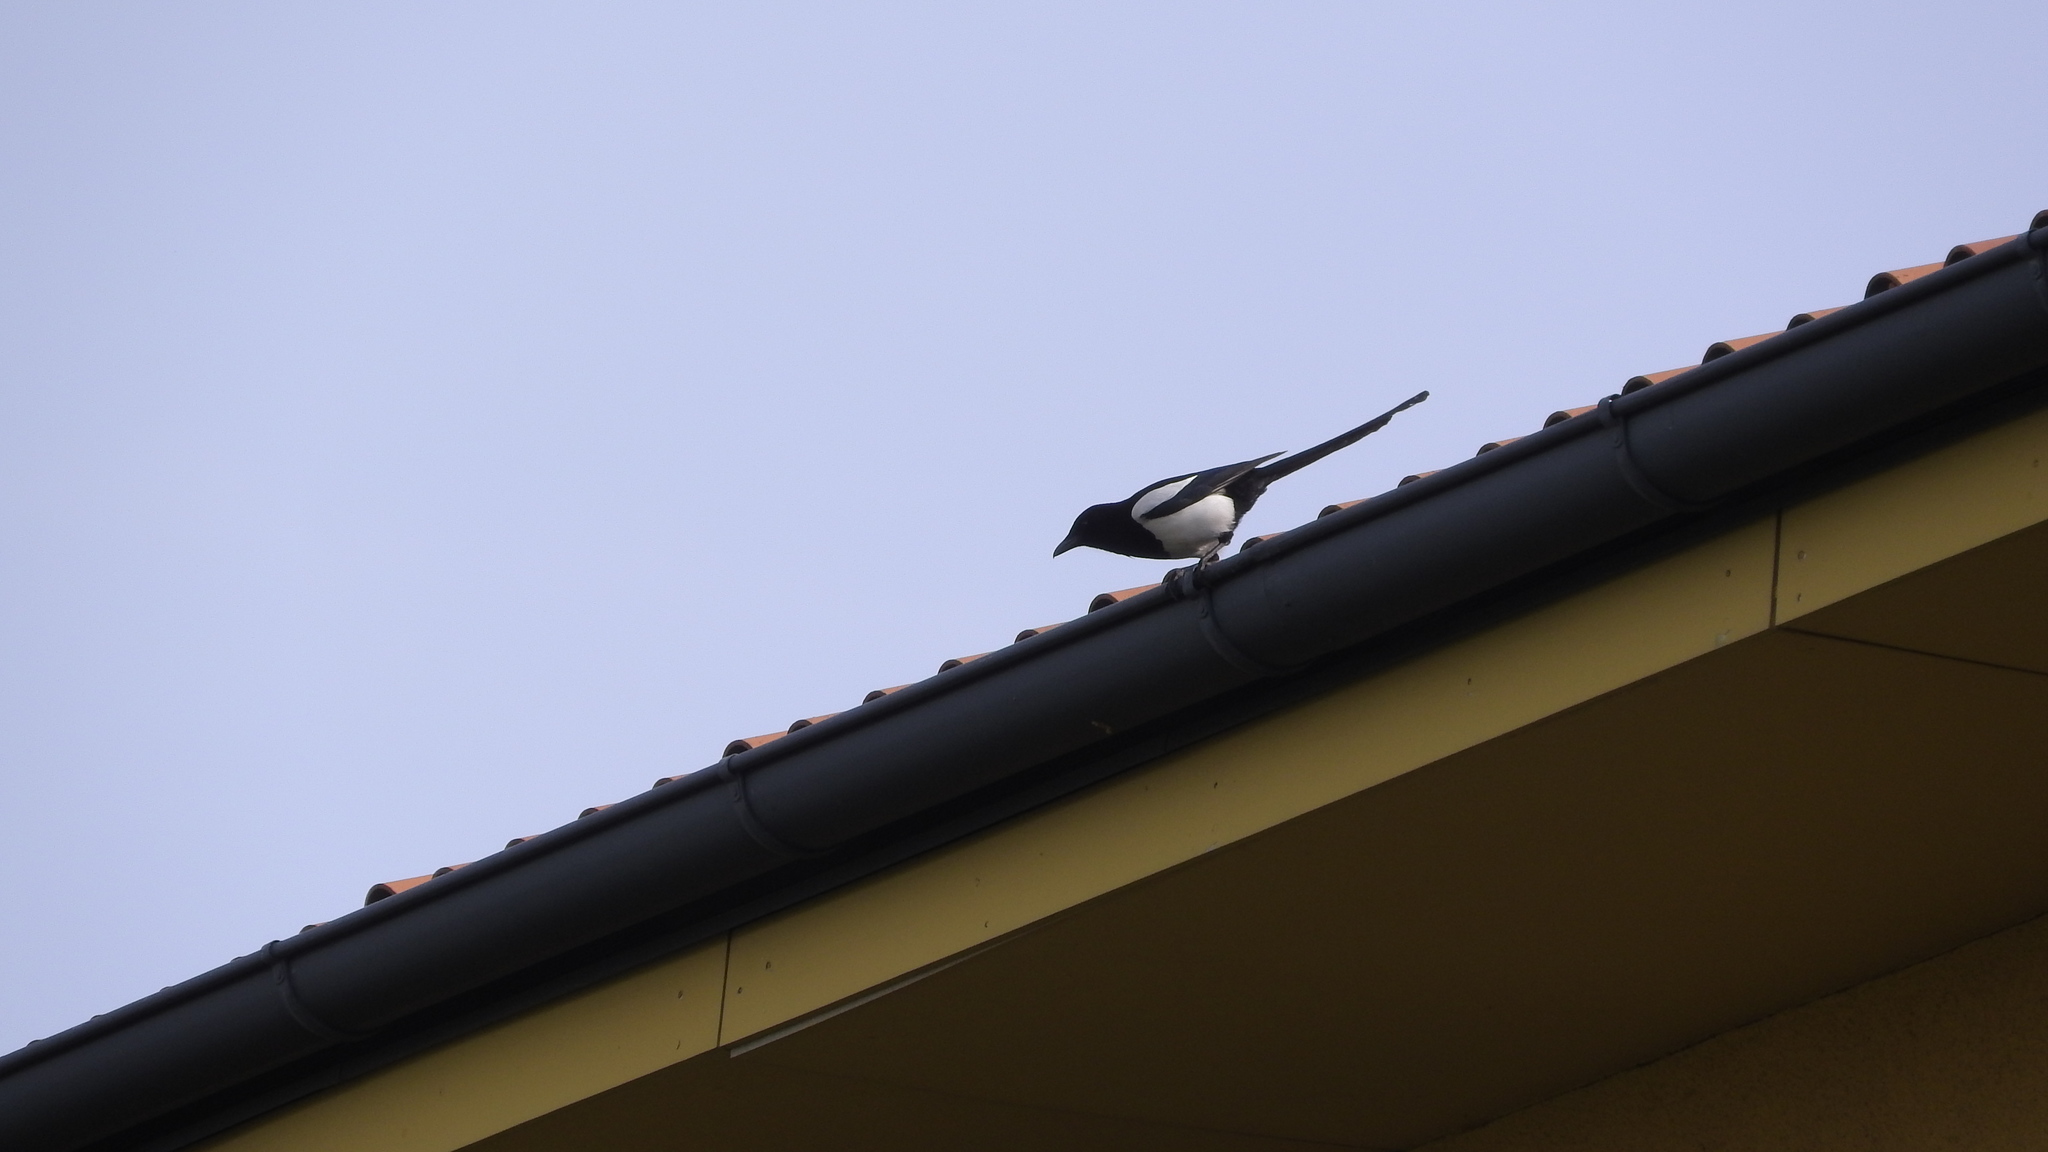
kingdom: Animalia
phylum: Chordata
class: Aves
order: Passeriformes
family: Corvidae
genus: Pica
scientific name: Pica pica
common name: Eurasian magpie
